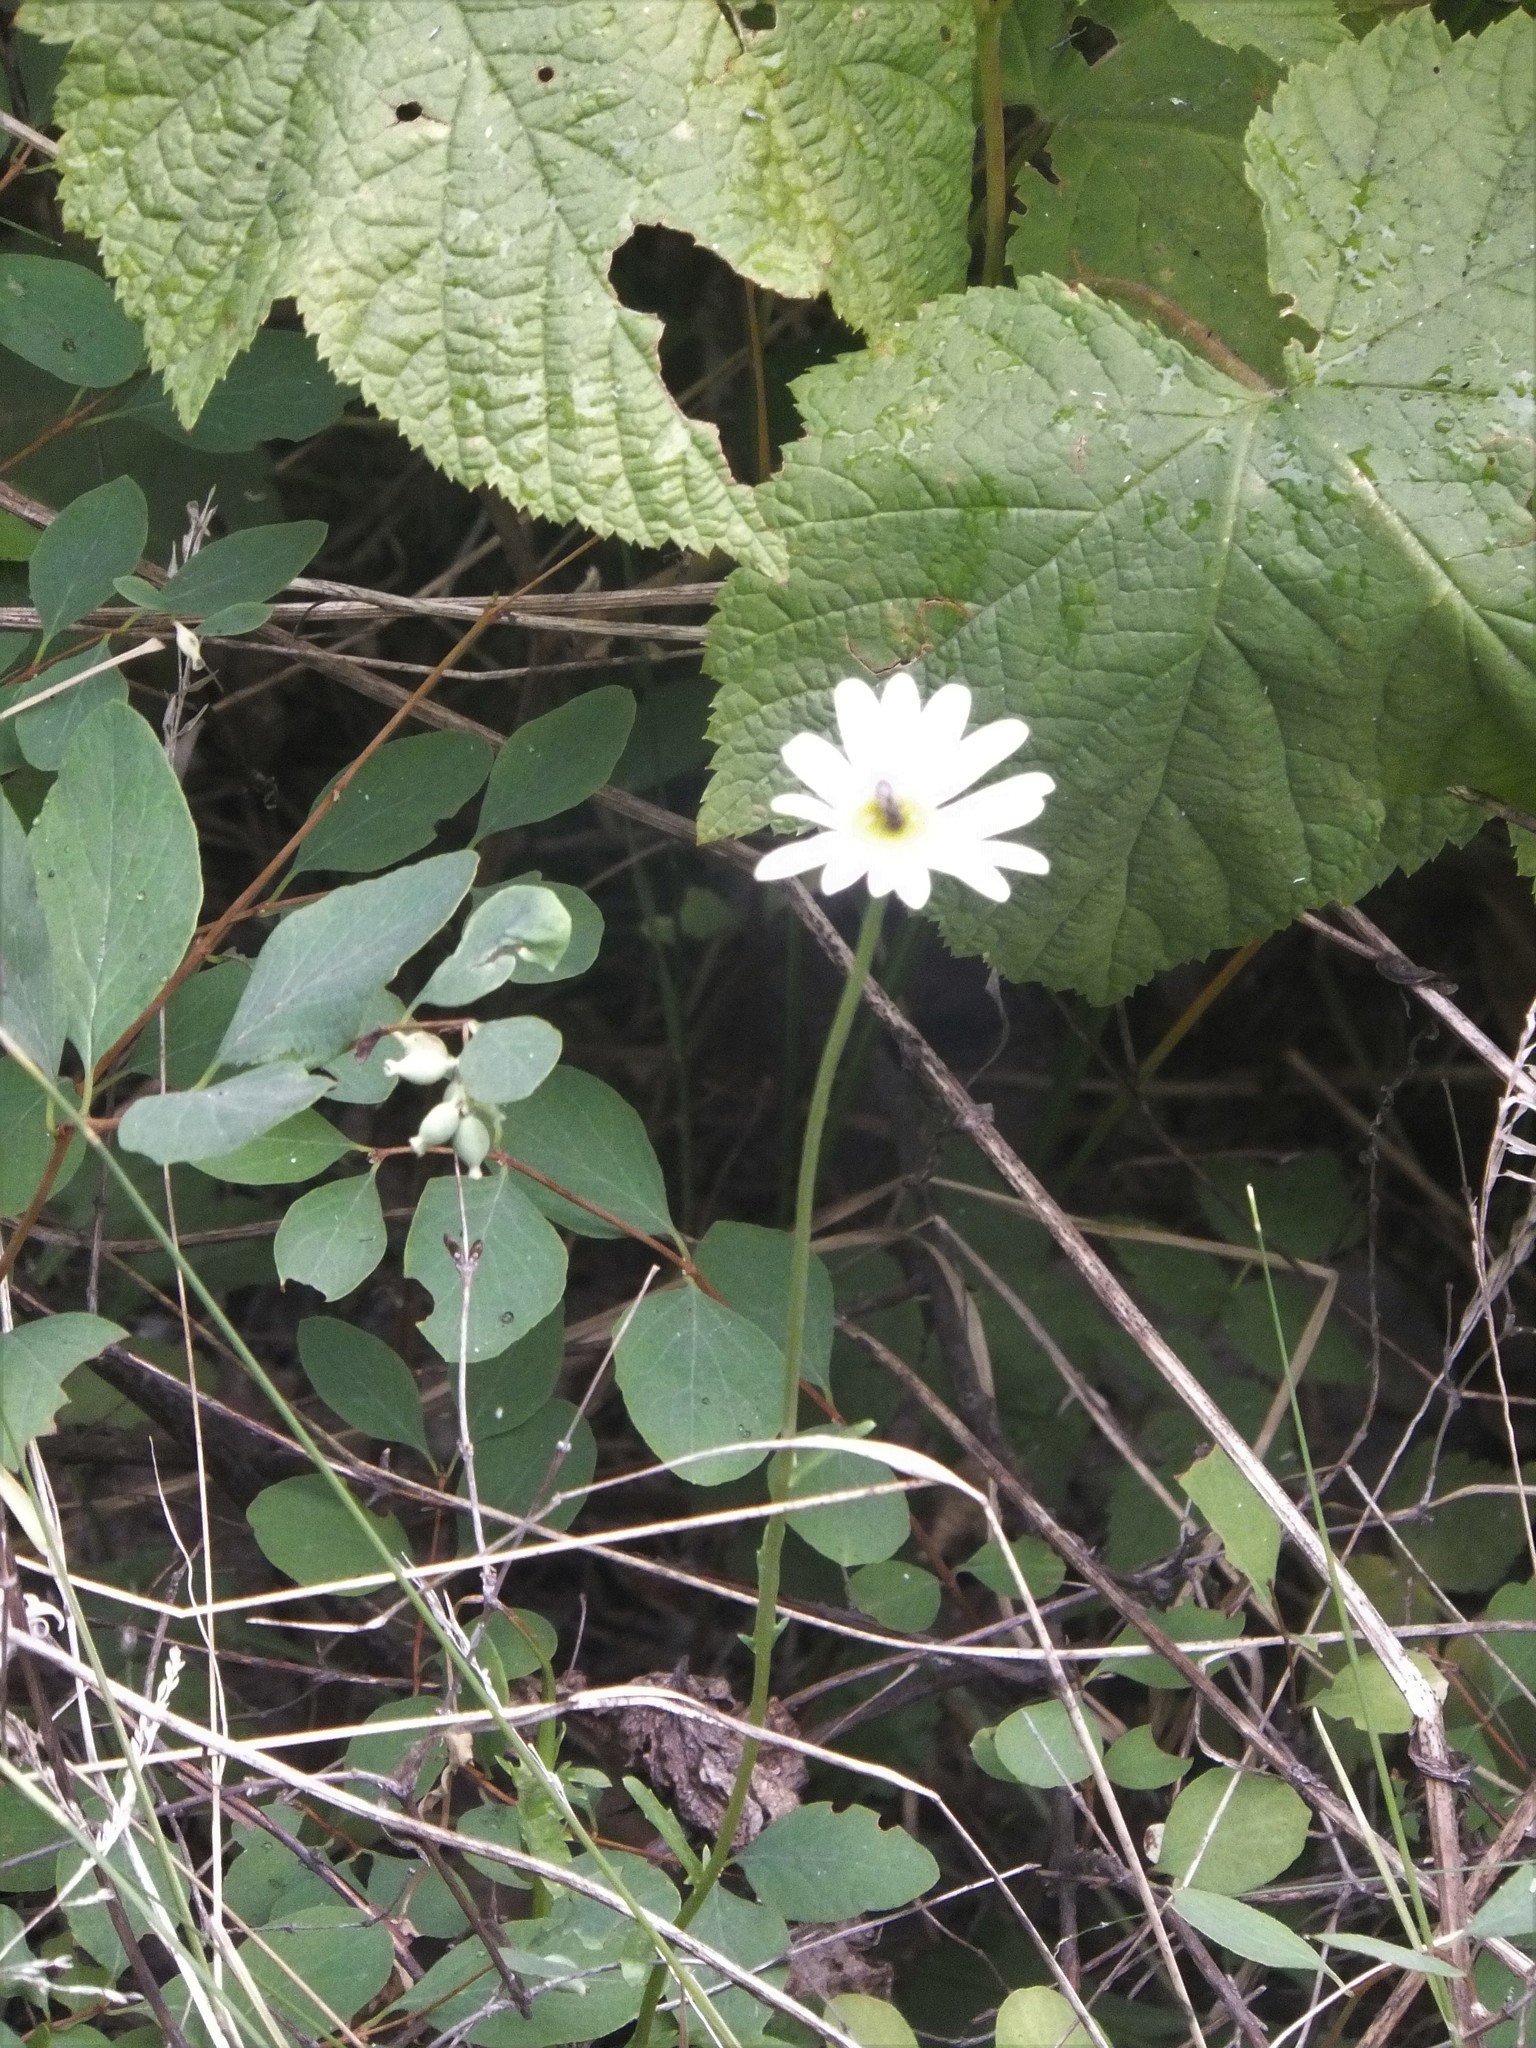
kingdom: Plantae
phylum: Tracheophyta
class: Magnoliopsida
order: Asterales
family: Asteraceae
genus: Leucanthemum
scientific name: Leucanthemum vulgare
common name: Oxeye daisy
